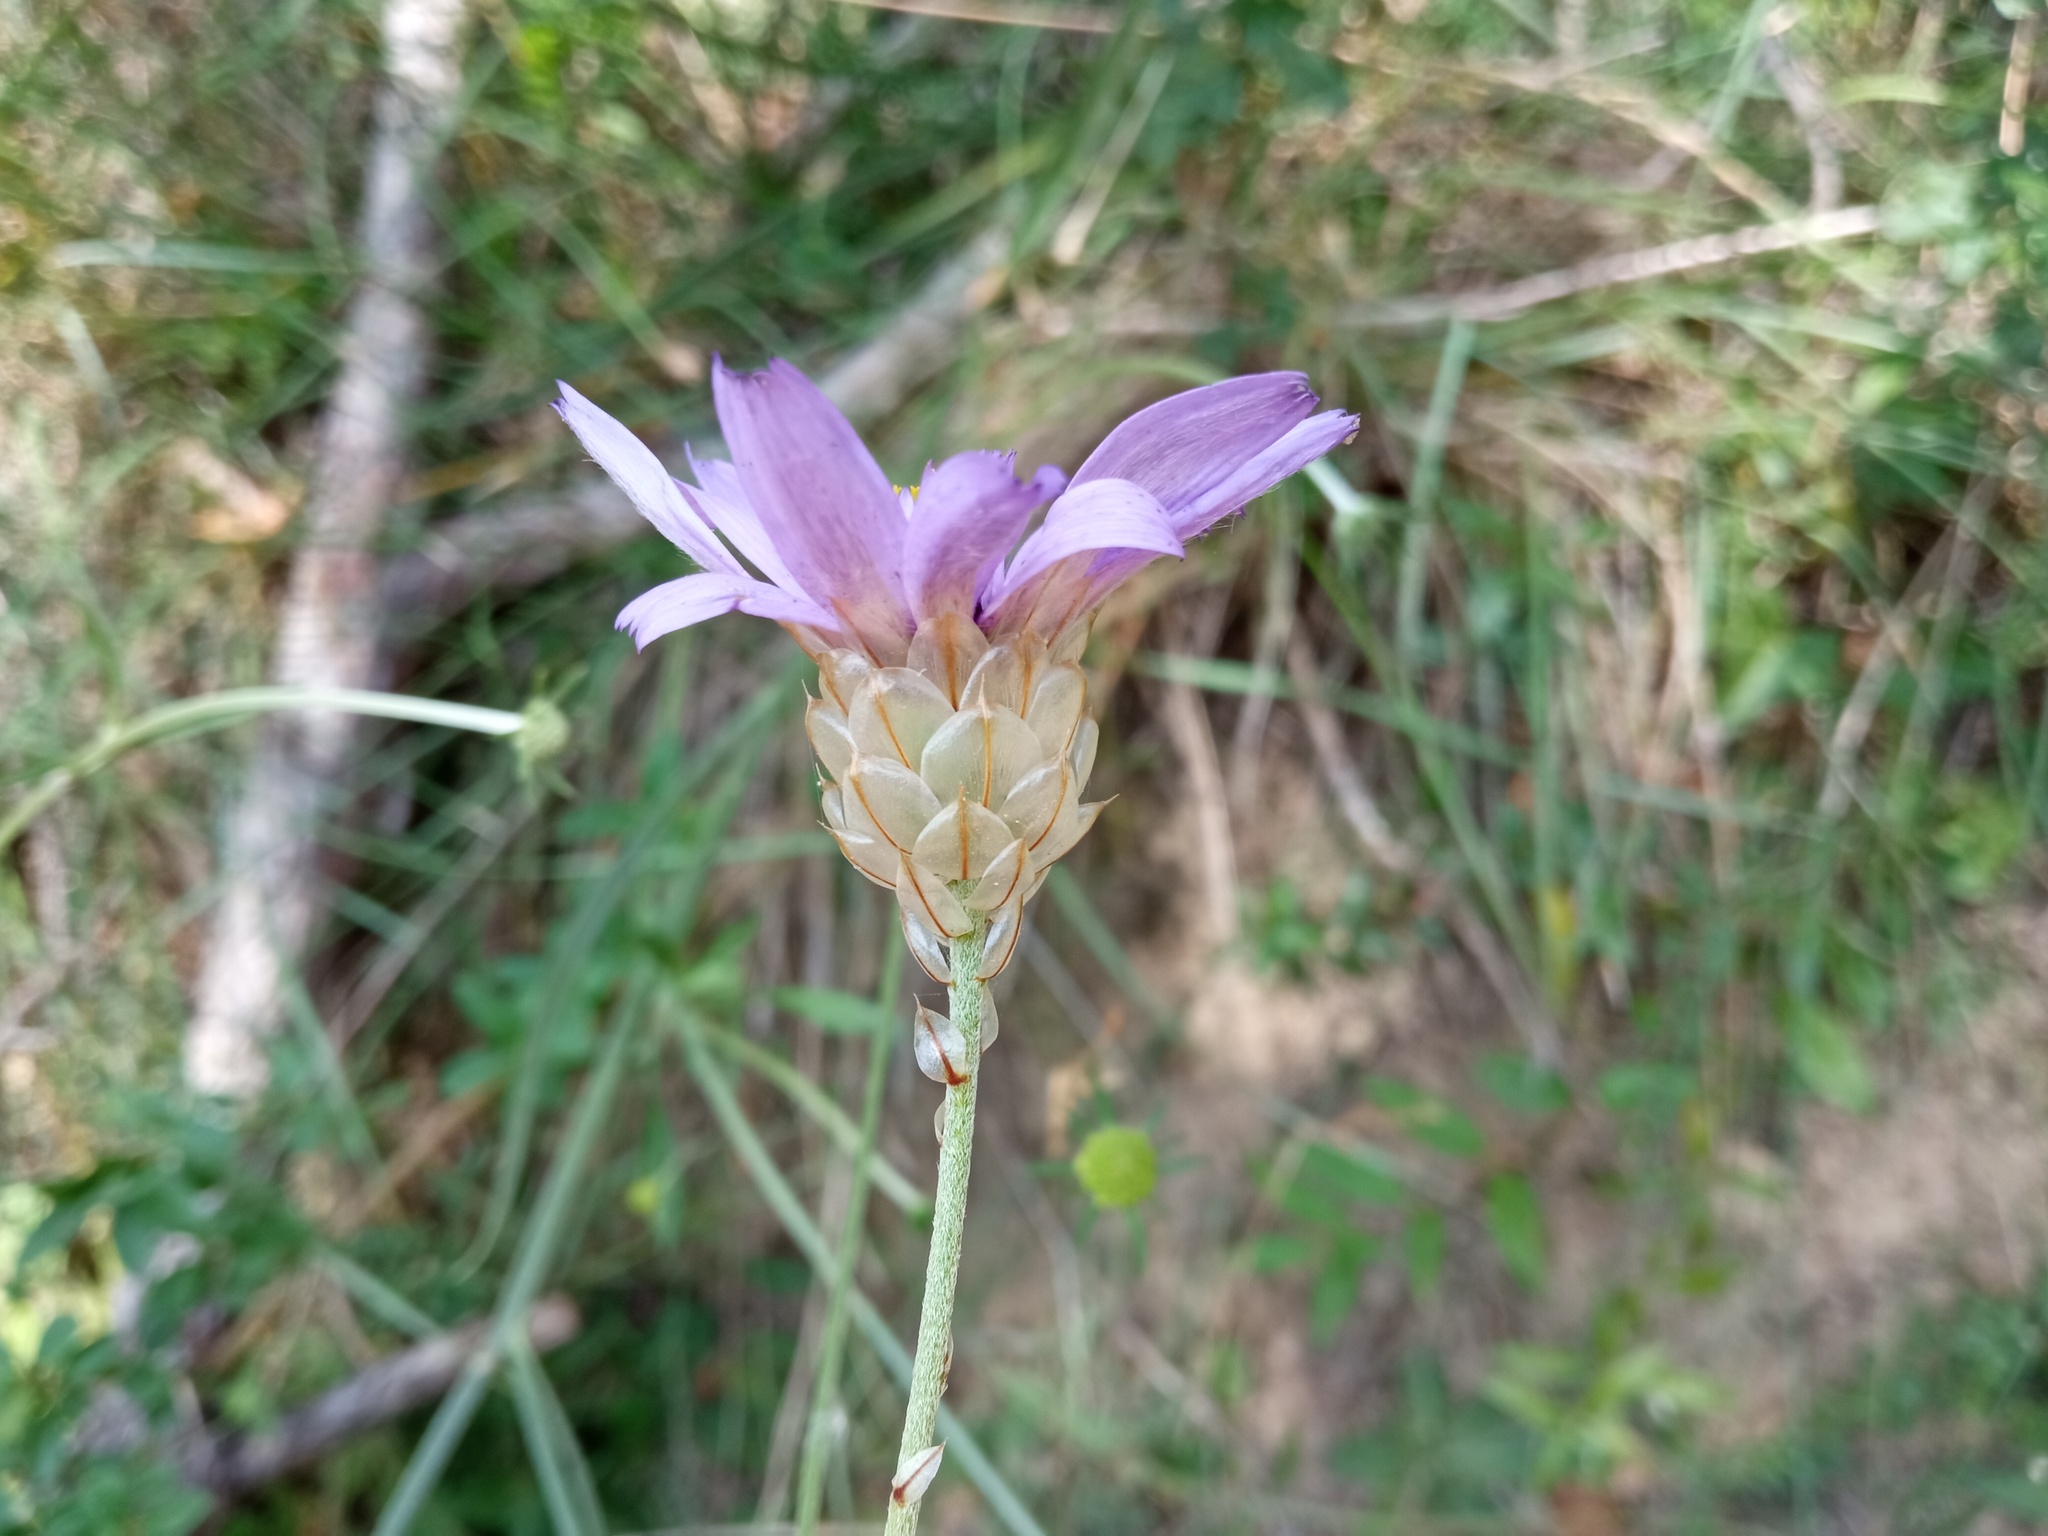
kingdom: Plantae
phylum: Tracheophyta
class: Magnoliopsida
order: Asterales
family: Asteraceae
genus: Catananche
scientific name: Catananche caerulea
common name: Blue cupidone
